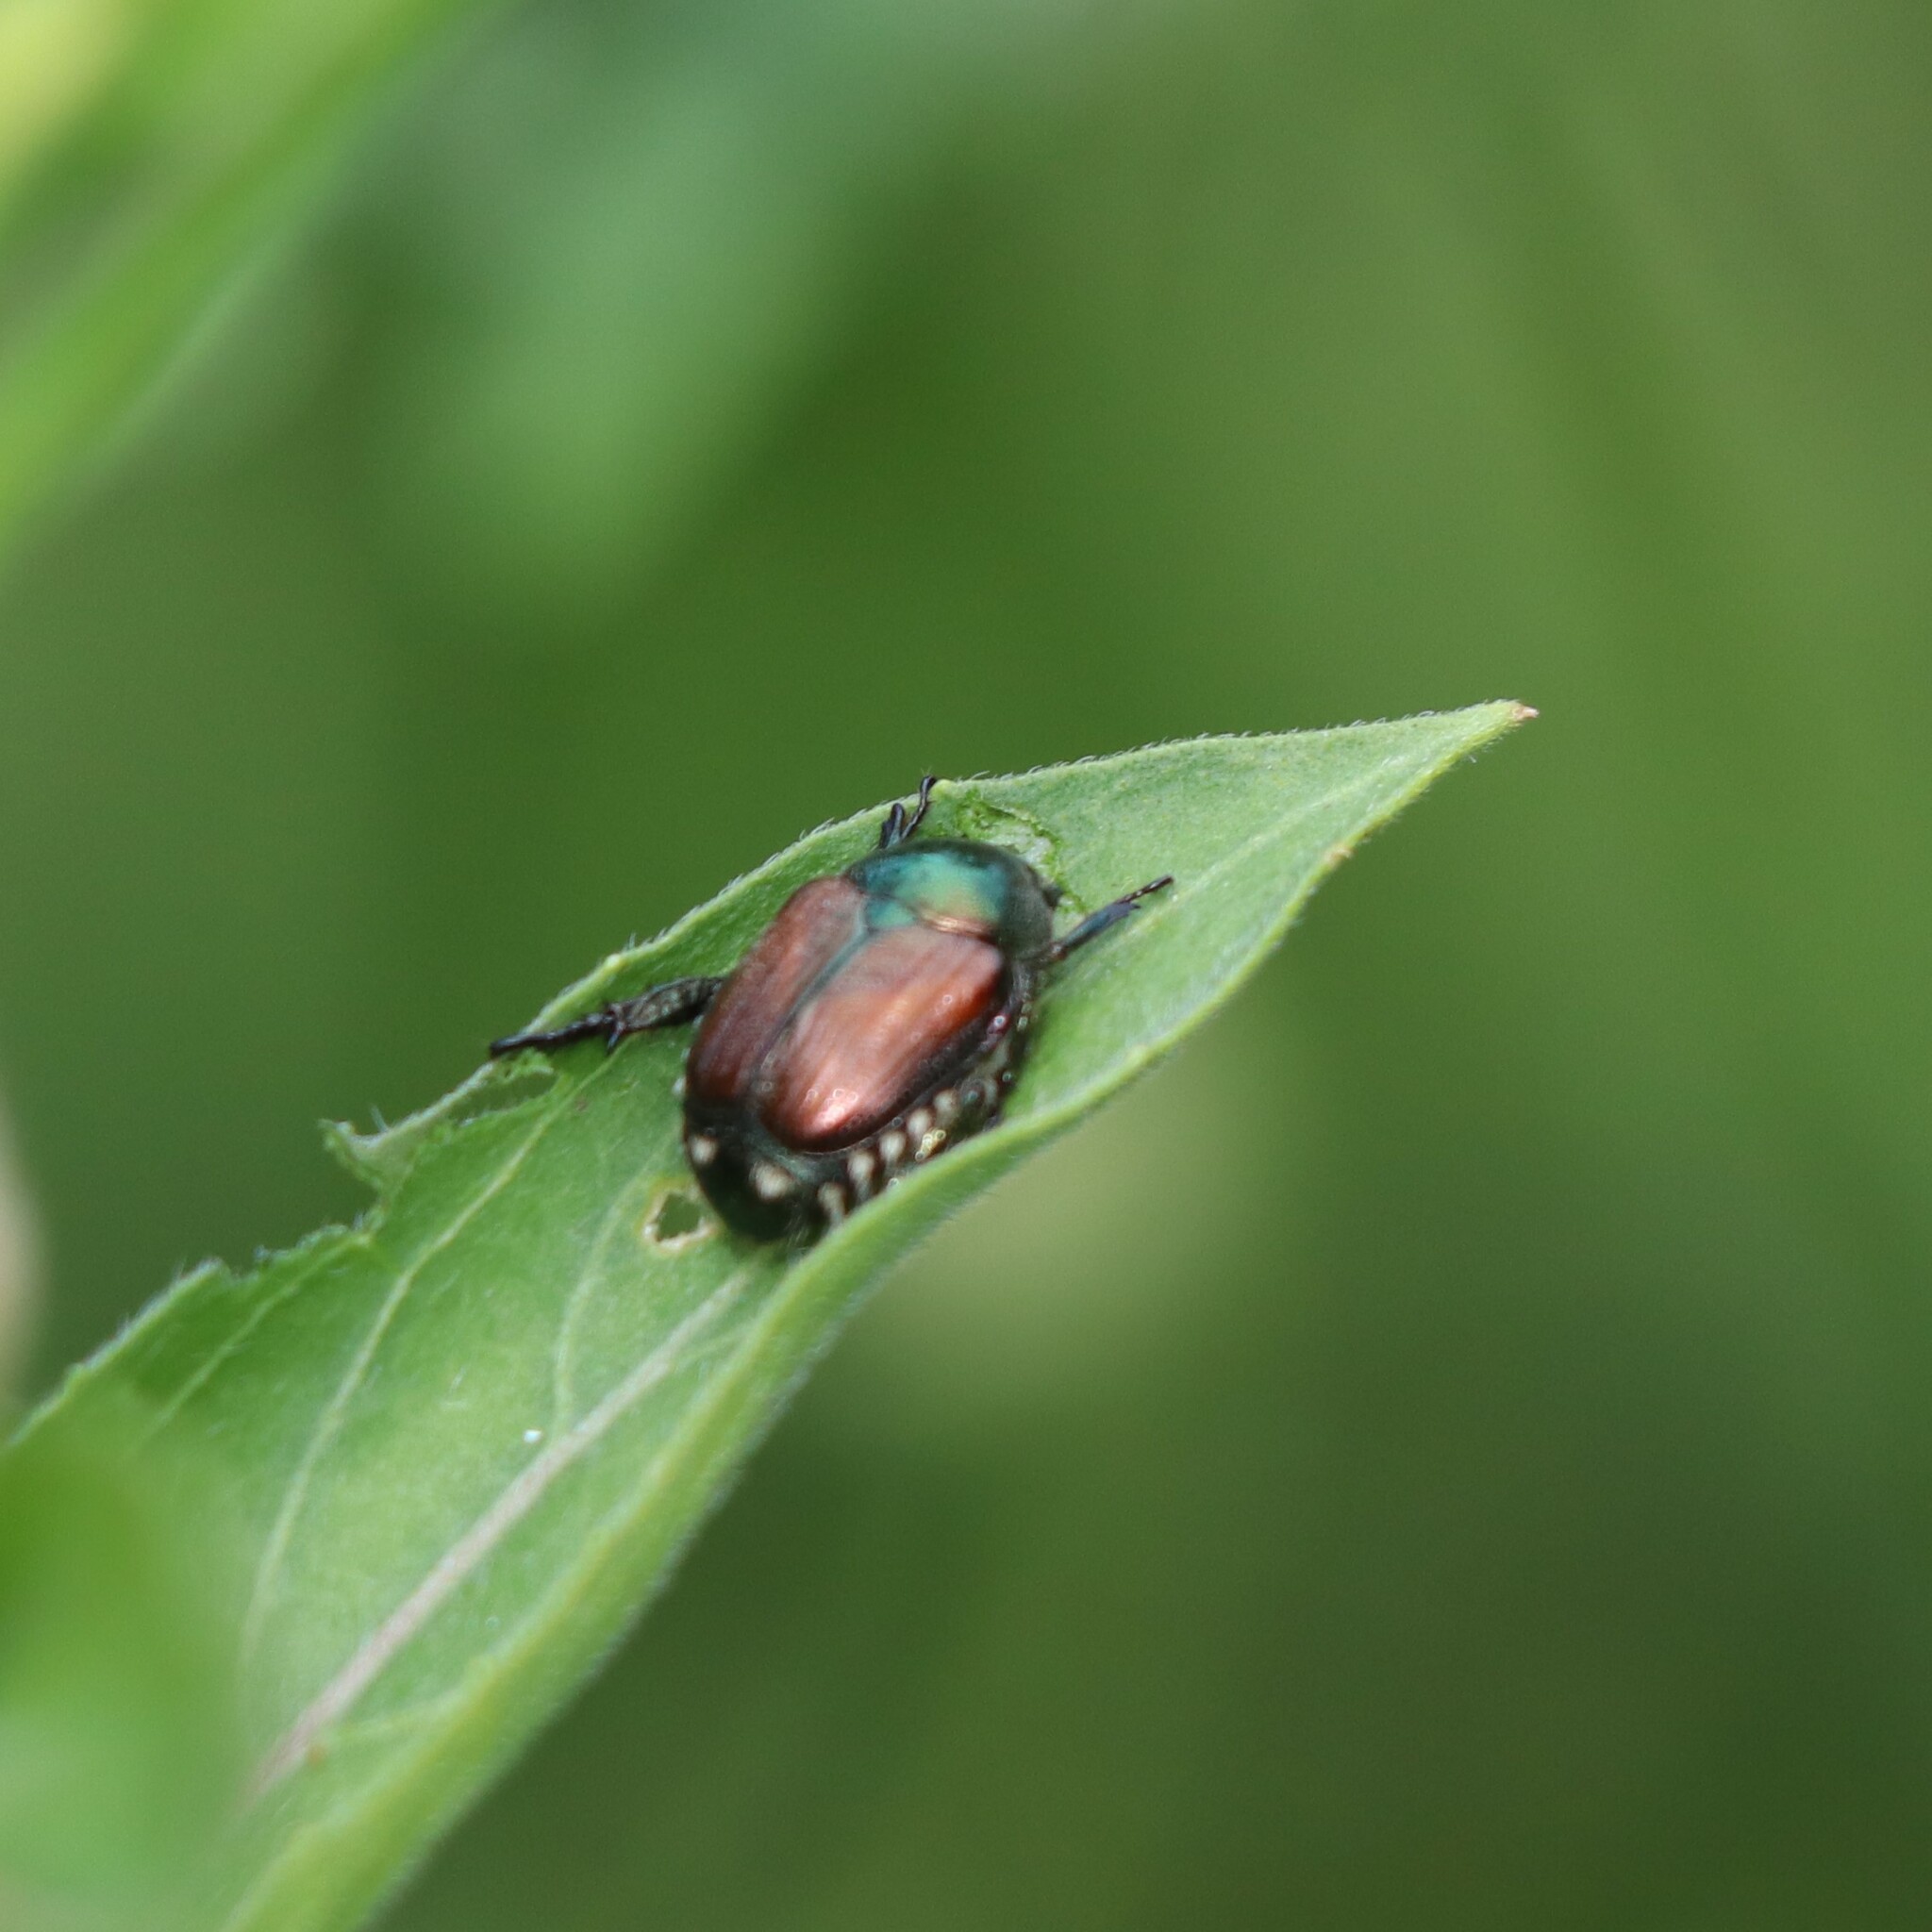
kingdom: Animalia
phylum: Arthropoda
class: Insecta
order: Coleoptera
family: Scarabaeidae
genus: Popillia
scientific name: Popillia japonica
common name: Japanese beetle
